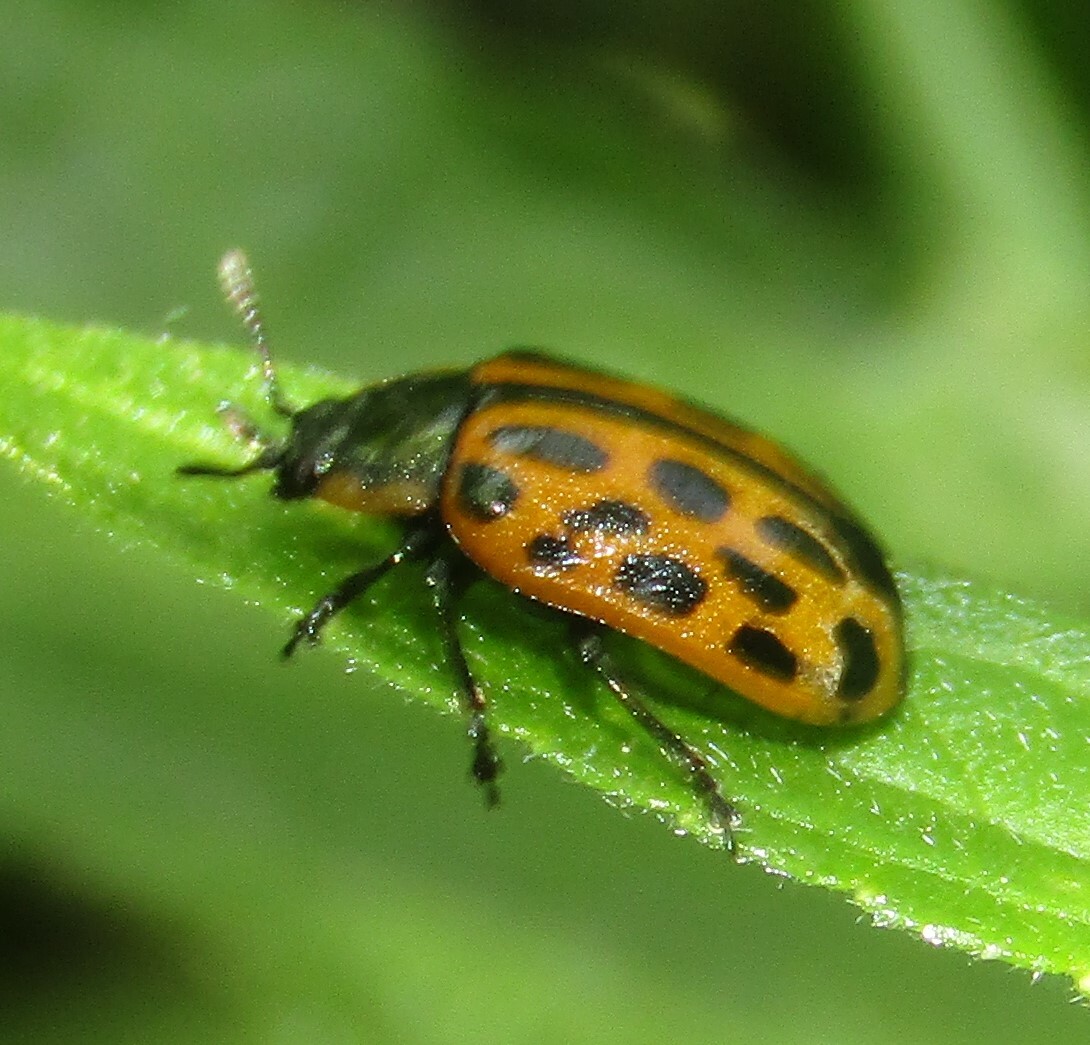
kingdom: Animalia
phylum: Arthropoda
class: Insecta
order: Coleoptera
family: Chrysomelidae
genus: Chrysomela
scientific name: Chrysomela vigintipunctata
